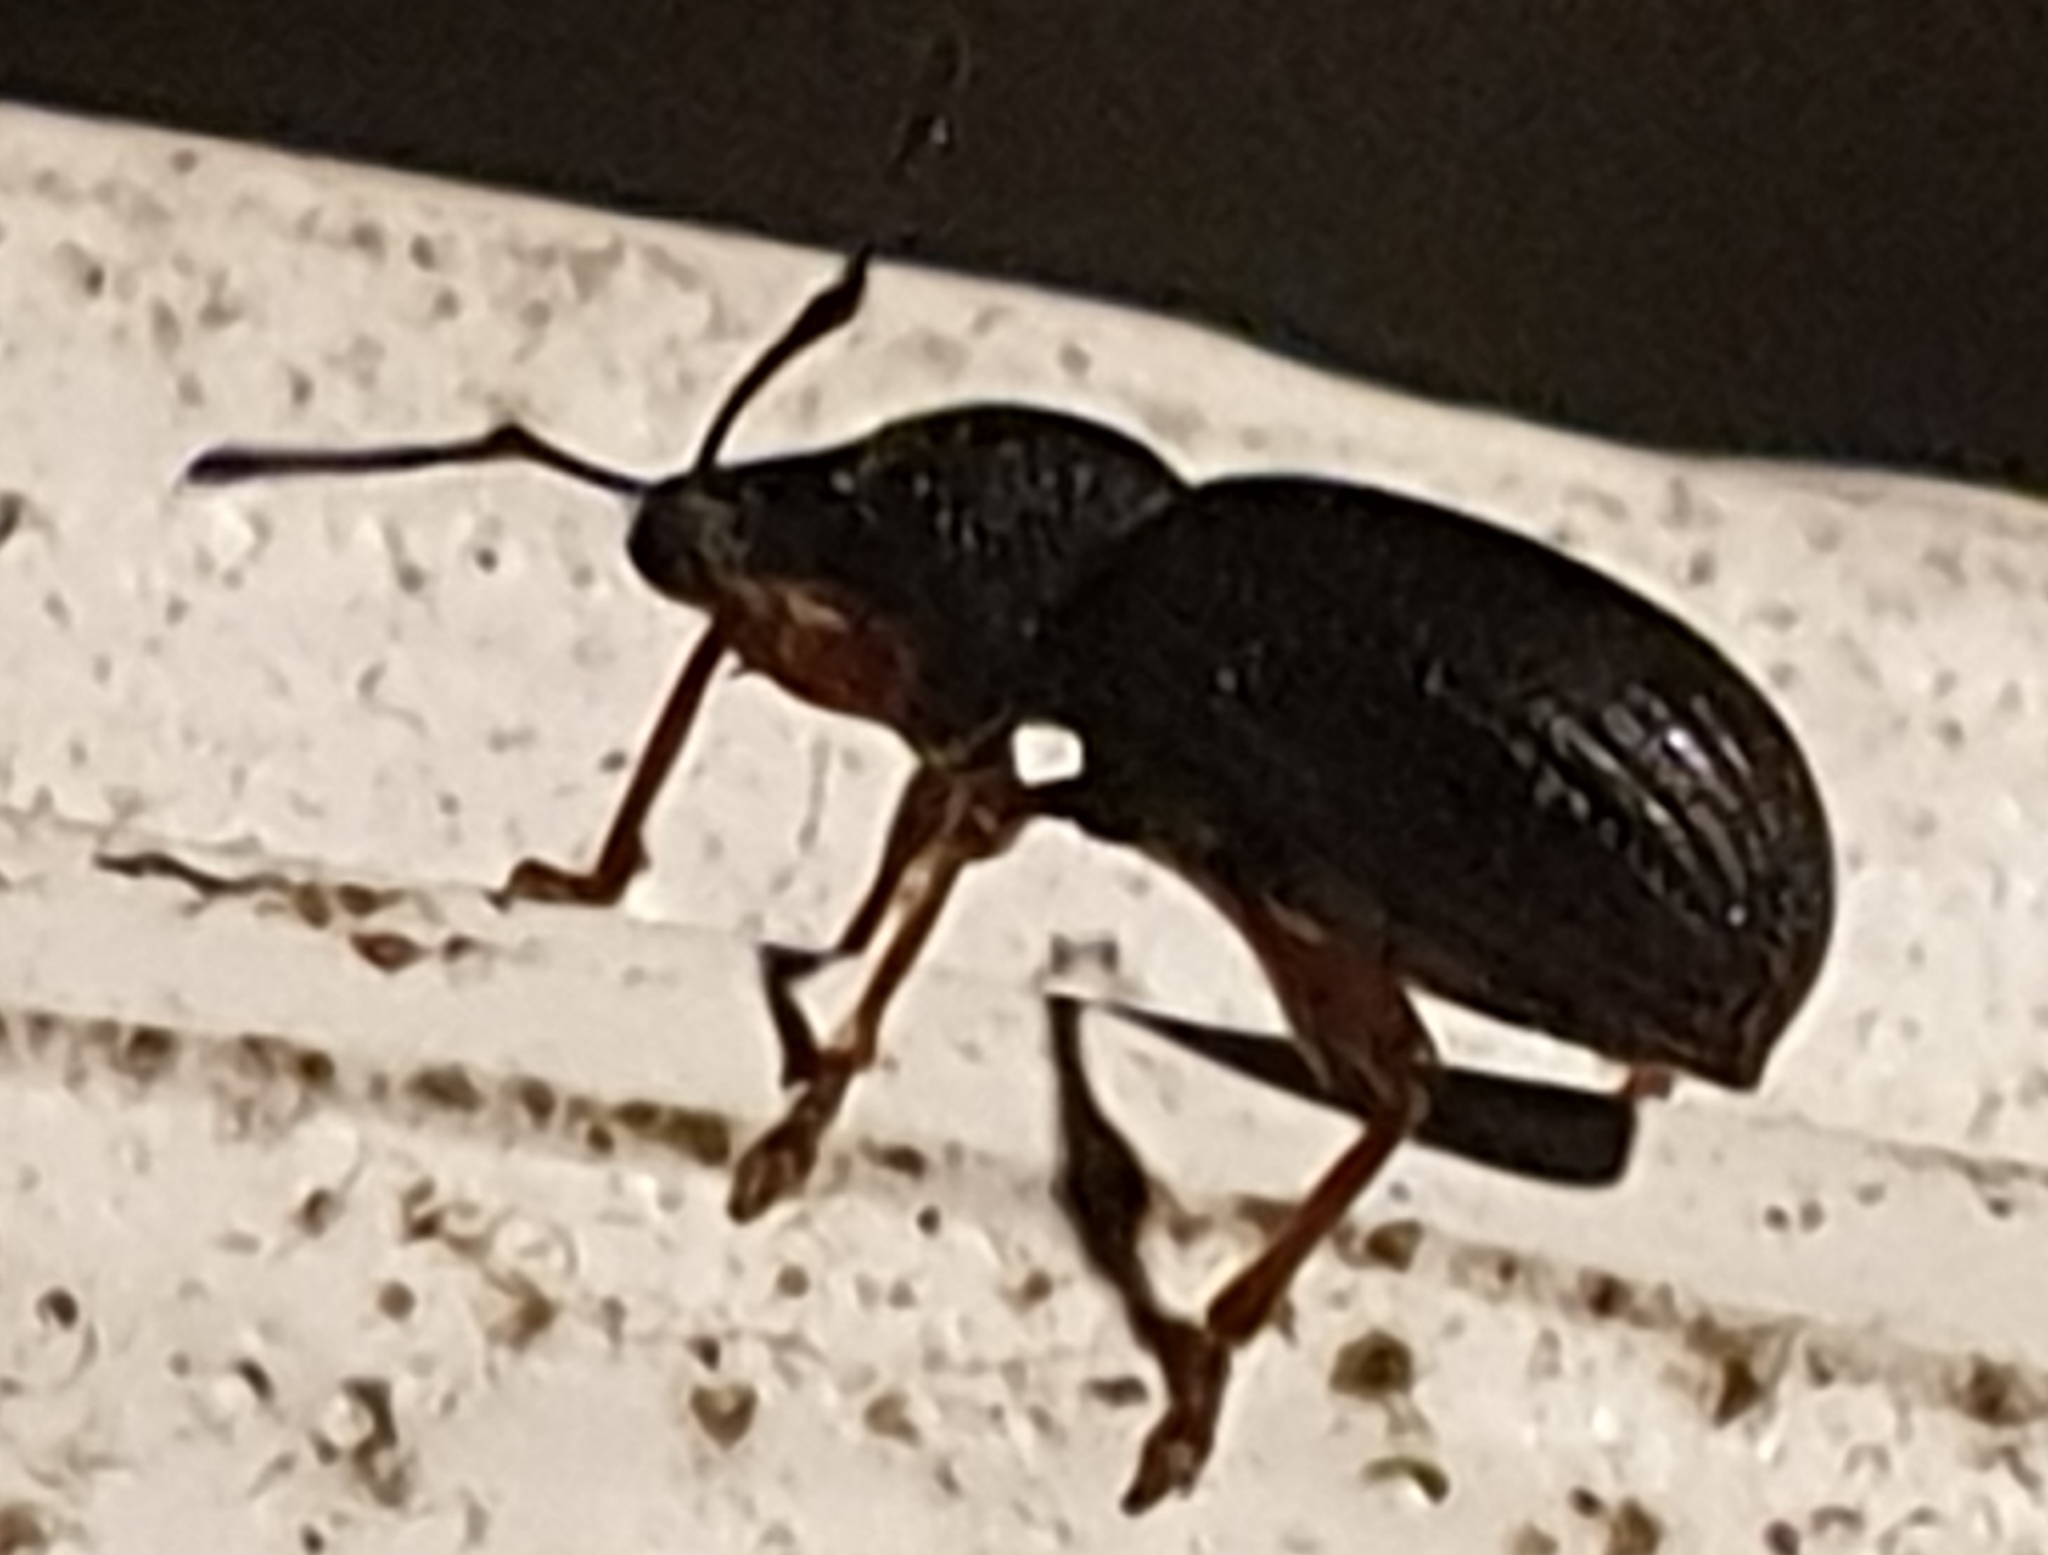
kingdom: Animalia
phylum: Arthropoda
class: Insecta
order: Coleoptera
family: Curculionidae
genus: Otiorhynchus
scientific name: Otiorhynchus ovatus
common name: Strawberry root weevil
